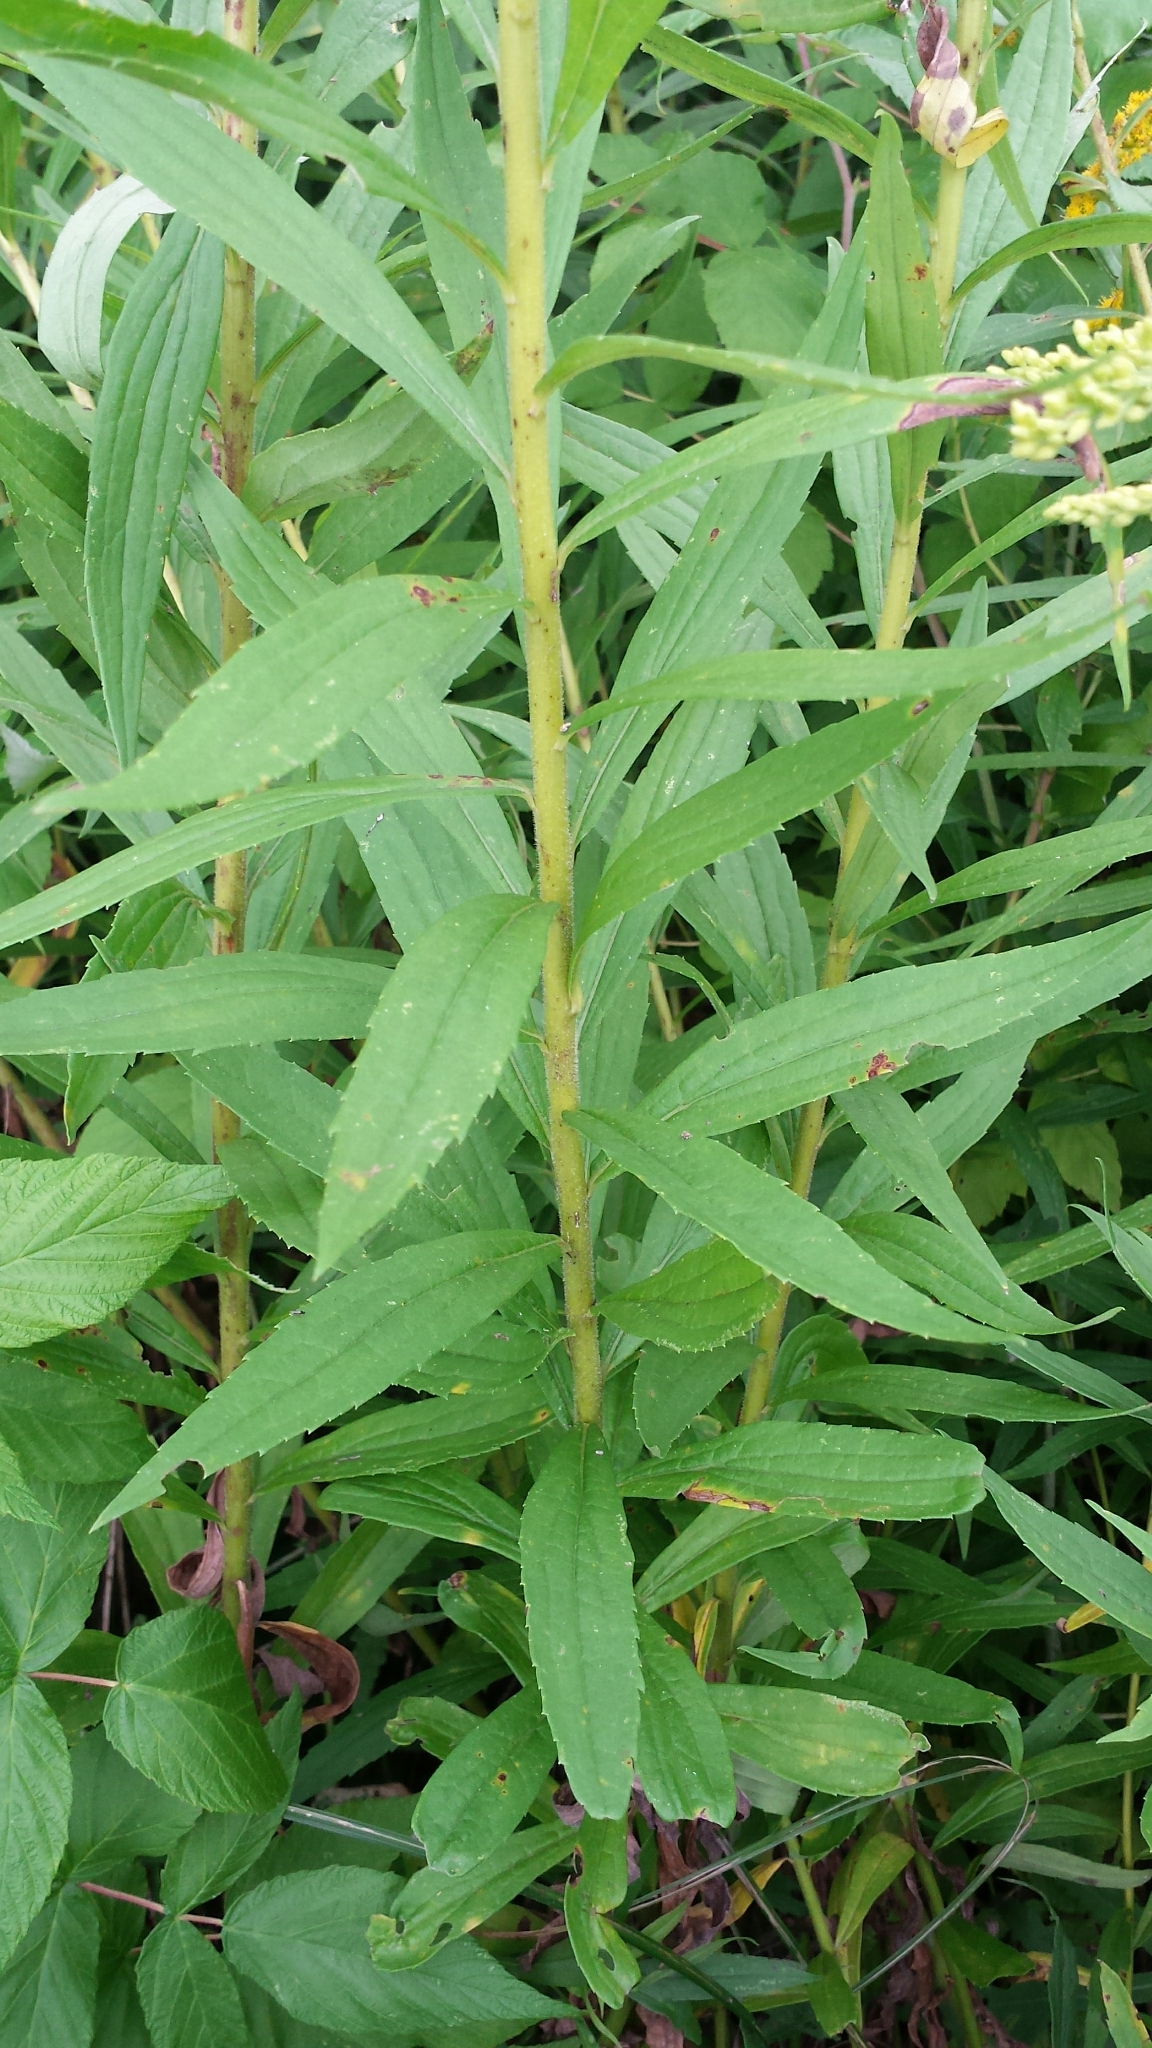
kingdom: Plantae
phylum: Tracheophyta
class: Magnoliopsida
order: Asterales
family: Asteraceae
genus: Solidago
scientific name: Solidago gigantea
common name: Giant goldenrod
